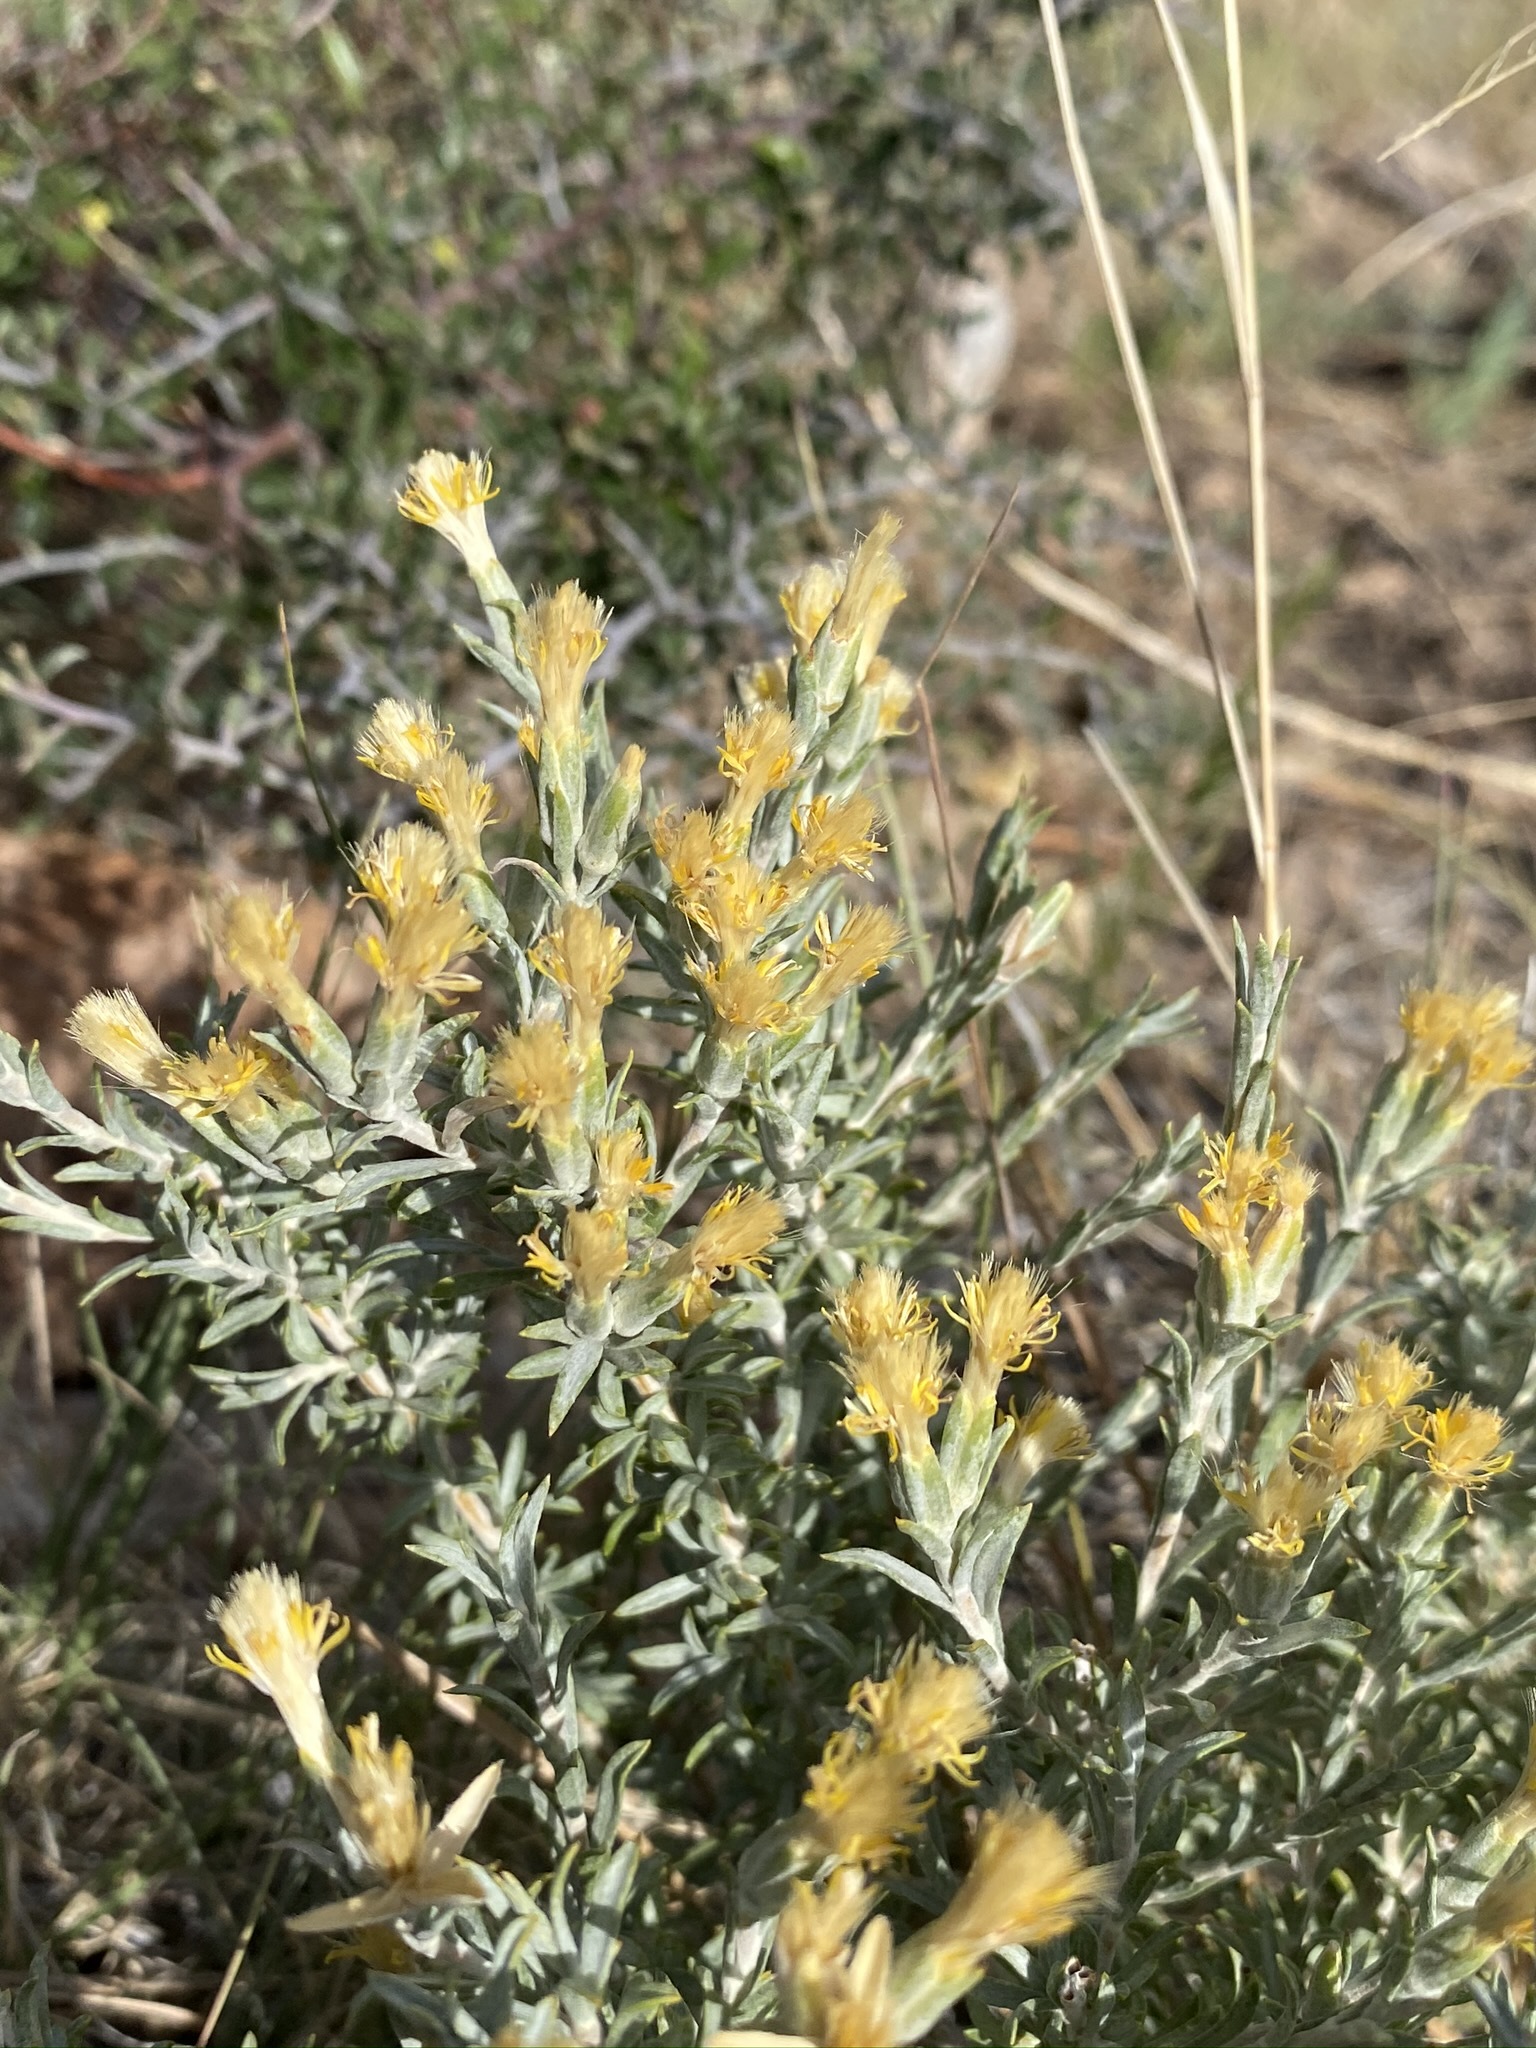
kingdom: Plantae
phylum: Tracheophyta
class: Magnoliopsida
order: Asterales
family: Asteraceae
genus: Tetradymia
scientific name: Tetradymia canescens
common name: Spineless horsebrush
